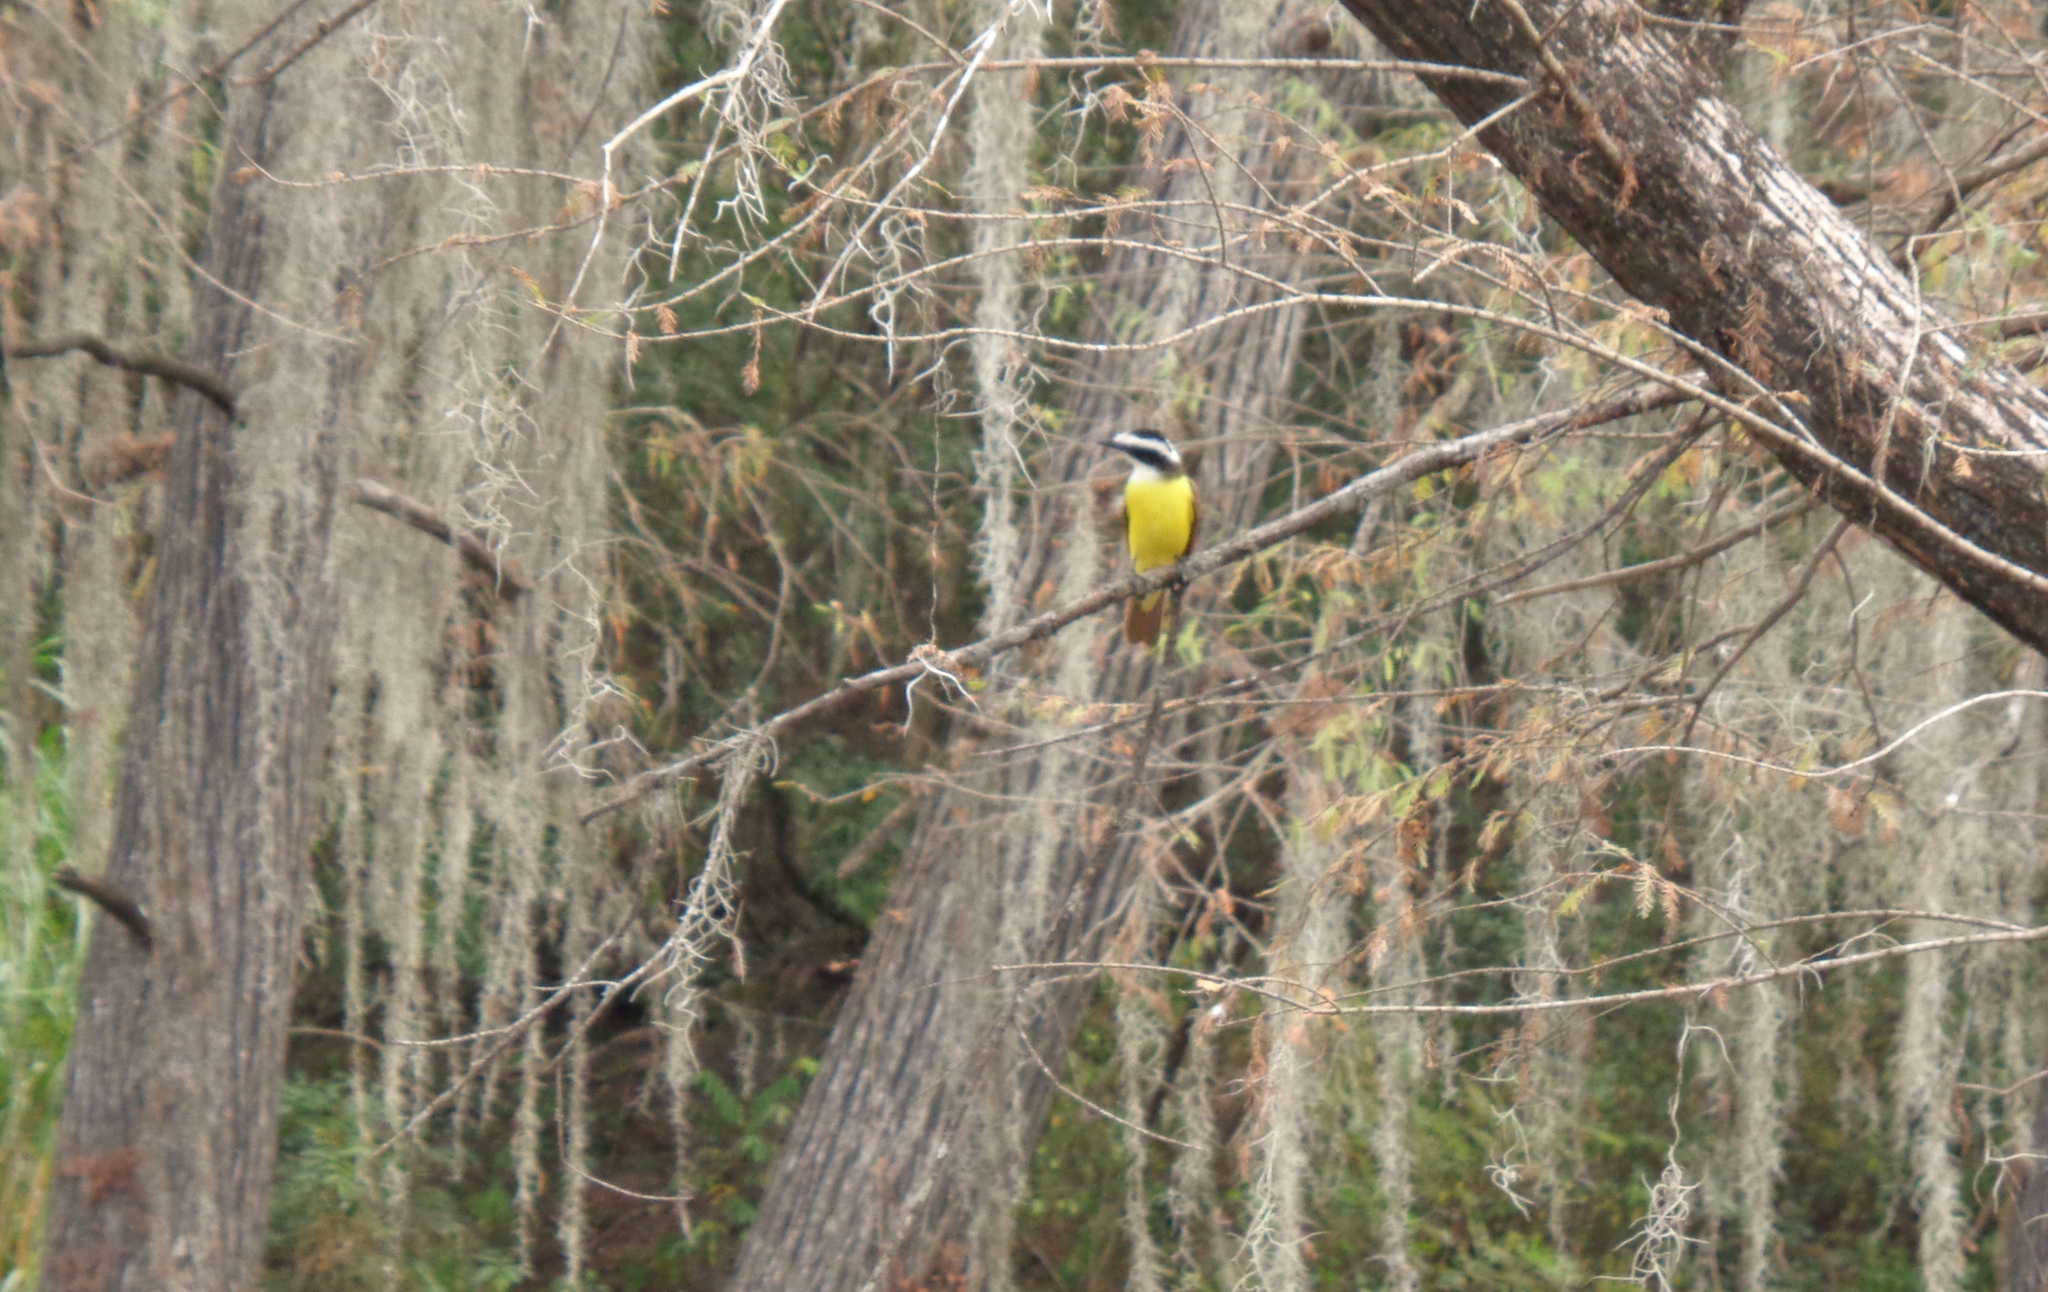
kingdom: Animalia
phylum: Chordata
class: Aves
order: Passeriformes
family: Tyrannidae
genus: Pitangus
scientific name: Pitangus sulphuratus
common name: Great kiskadee
